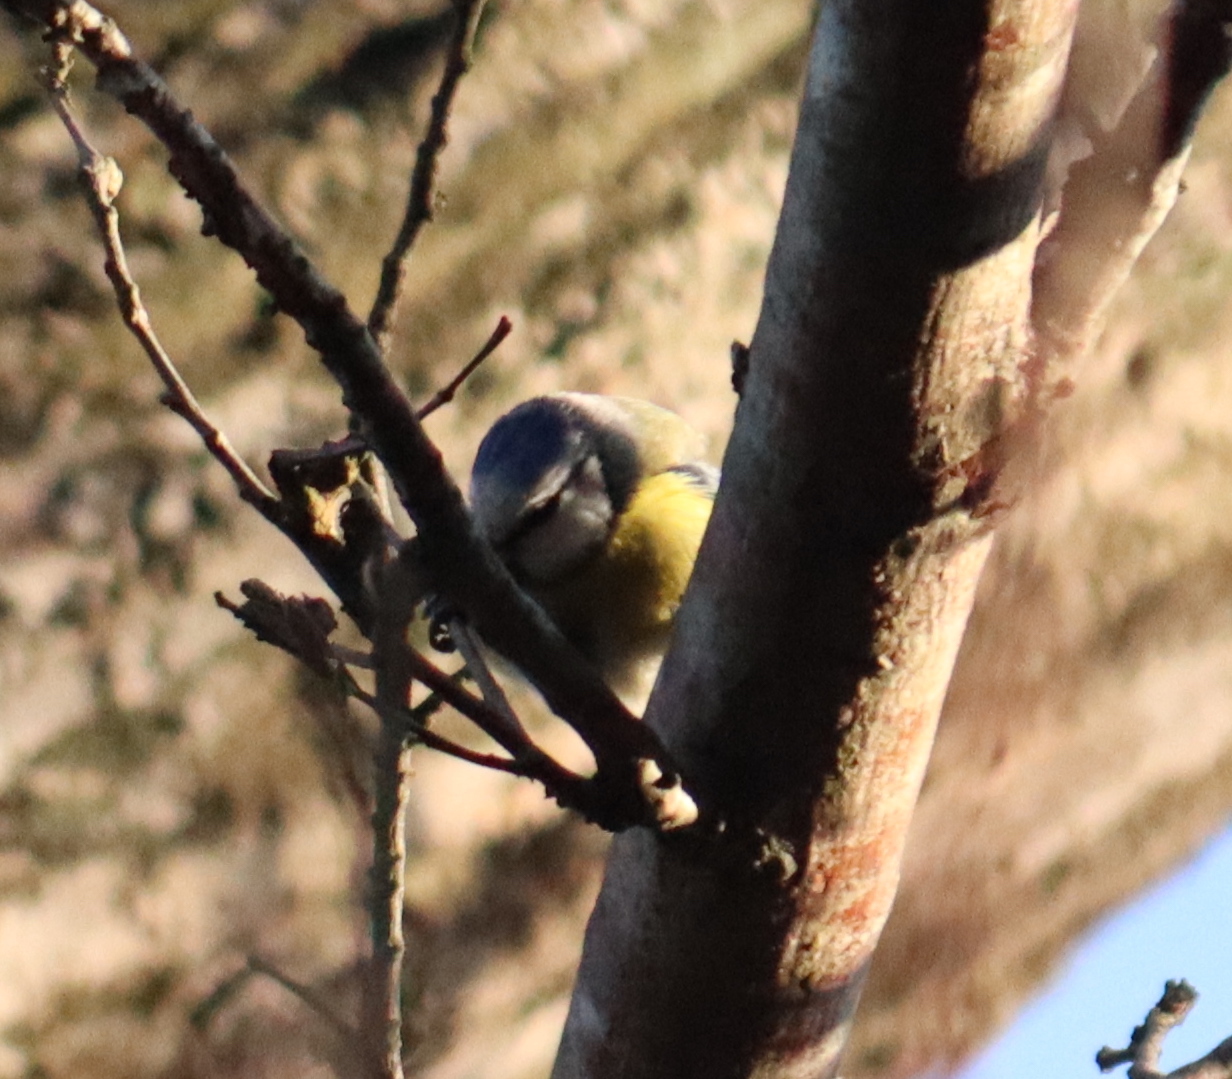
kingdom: Animalia
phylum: Chordata
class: Aves
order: Passeriformes
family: Paridae
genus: Cyanistes
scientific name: Cyanistes caeruleus
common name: Eurasian blue tit
